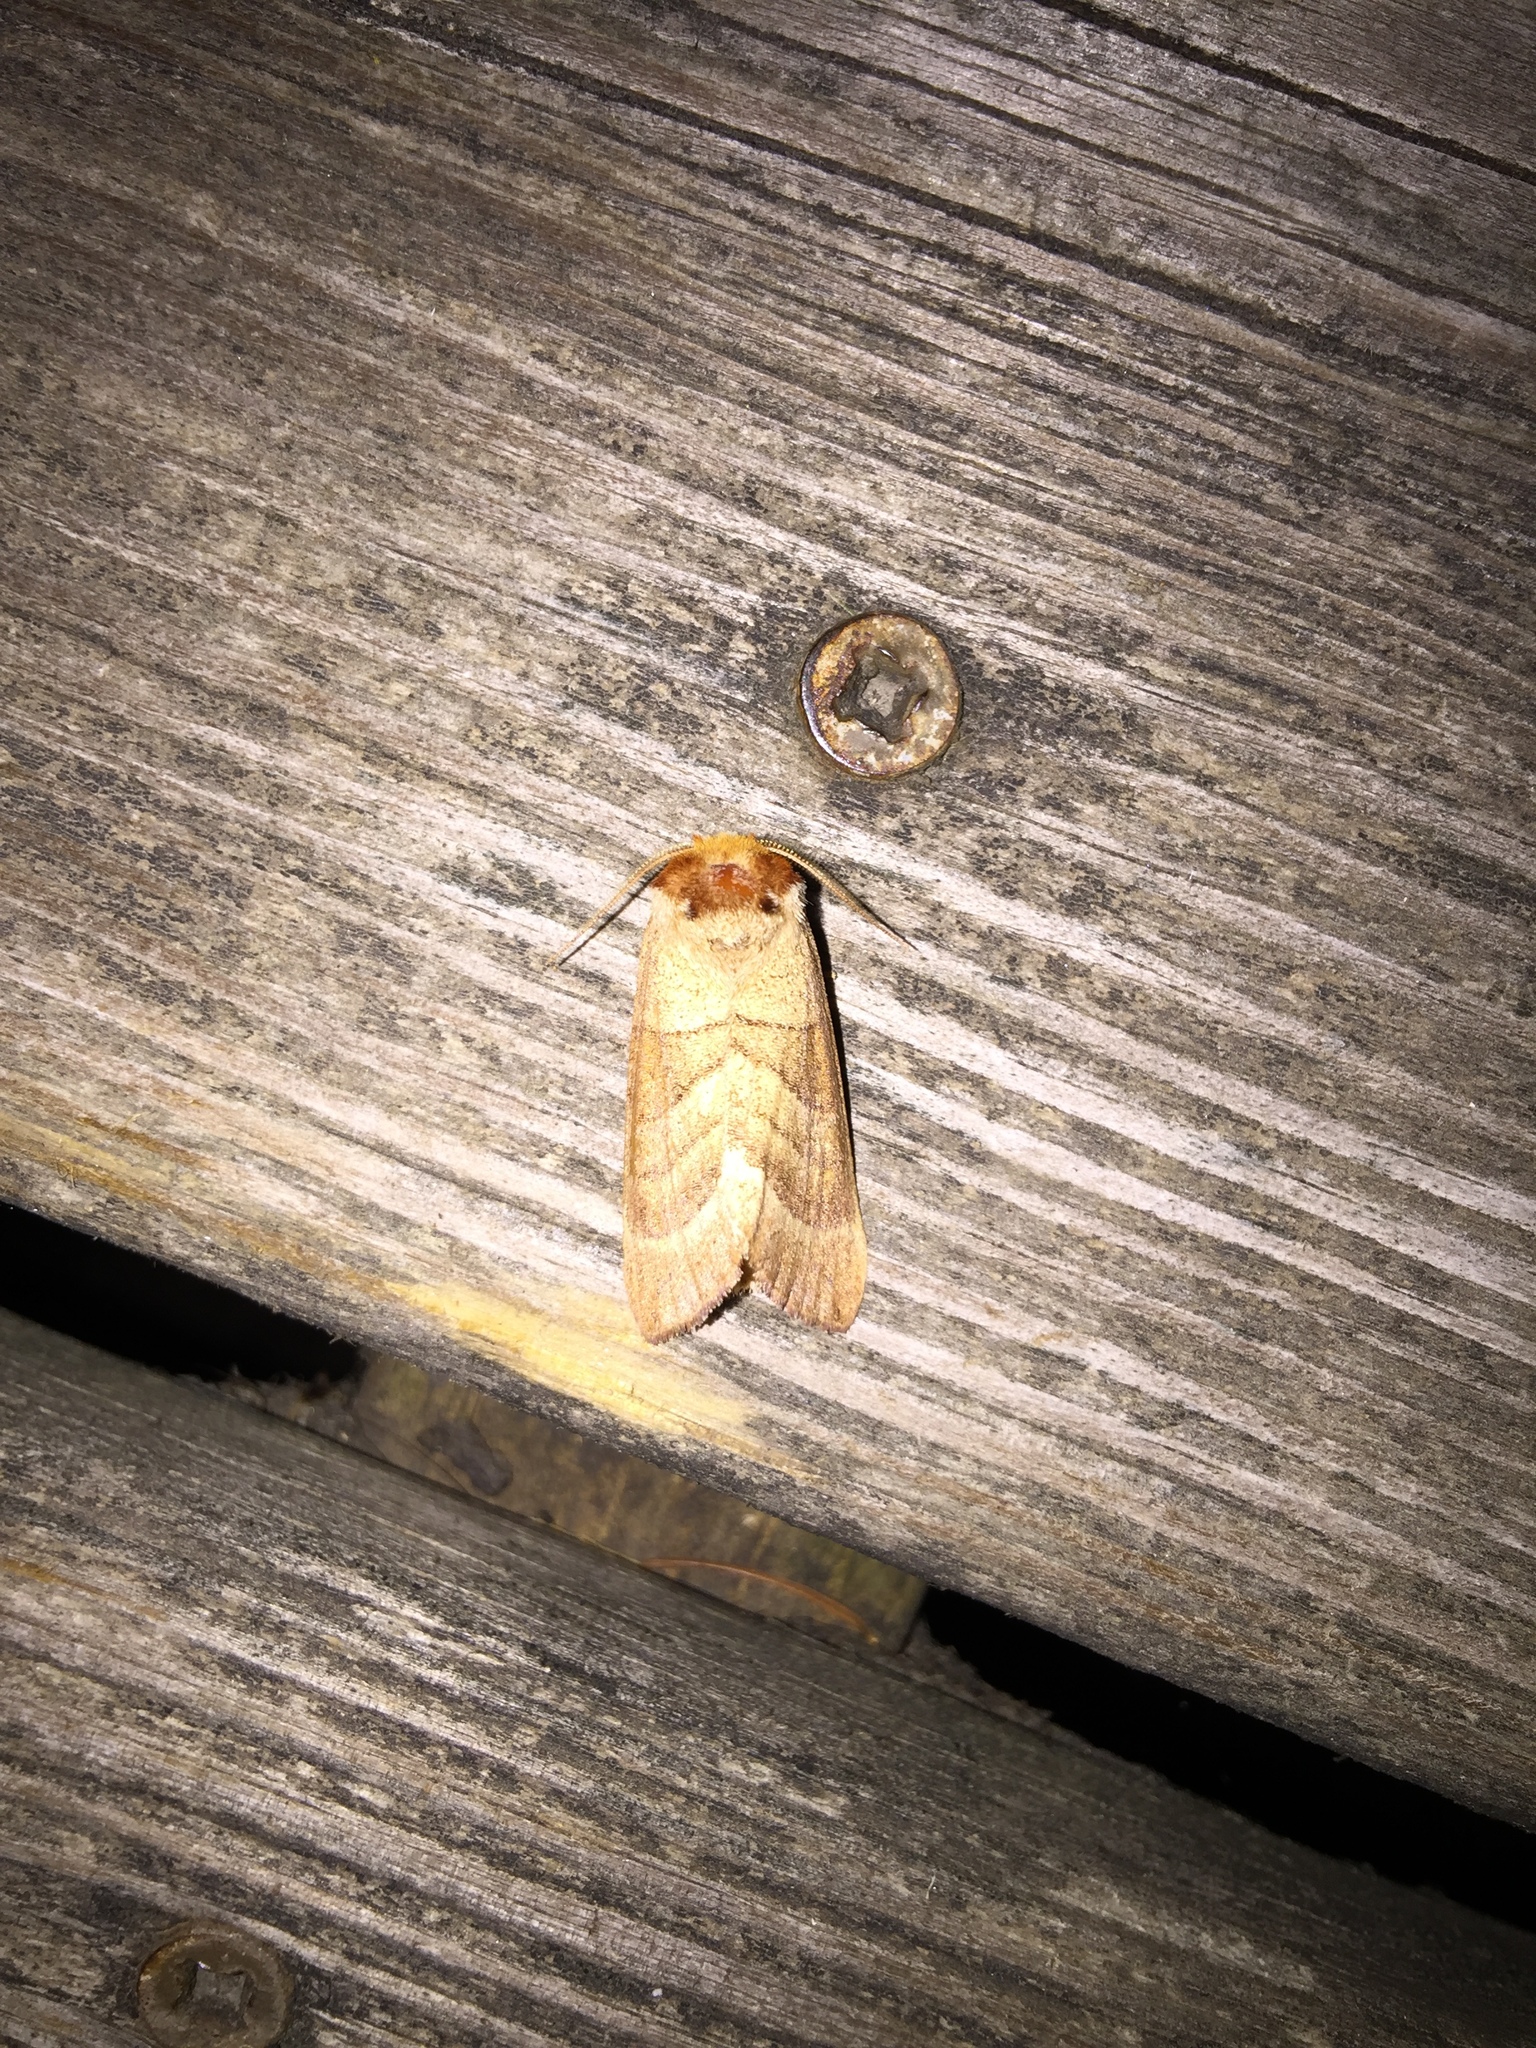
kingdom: Animalia
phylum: Arthropoda
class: Insecta
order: Lepidoptera
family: Notodontidae
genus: Datana
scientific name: Datana integerrima
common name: Walnut caterpillar
